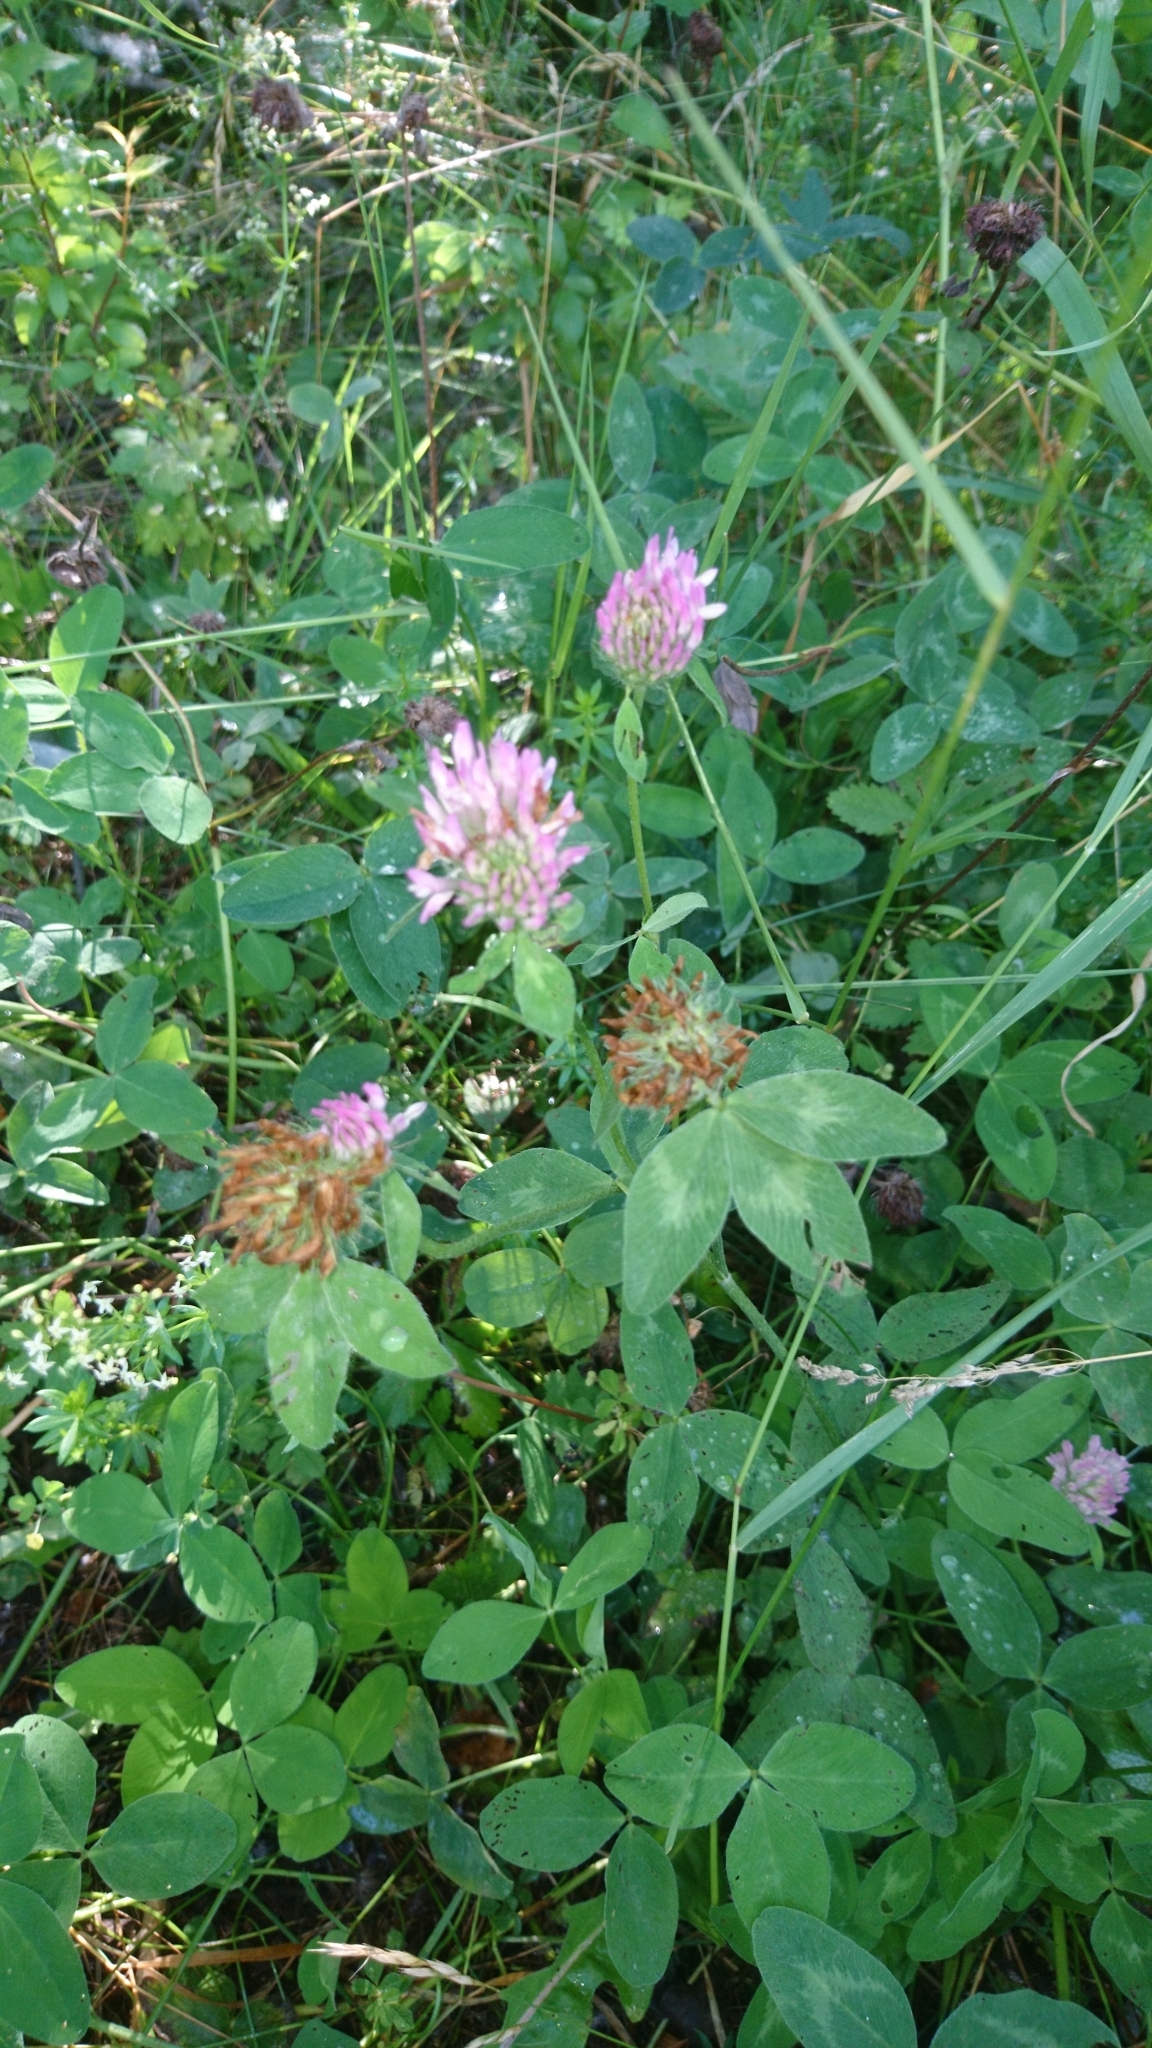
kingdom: Plantae
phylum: Tracheophyta
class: Magnoliopsida
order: Fabales
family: Fabaceae
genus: Trifolium
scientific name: Trifolium pratense
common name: Red clover
